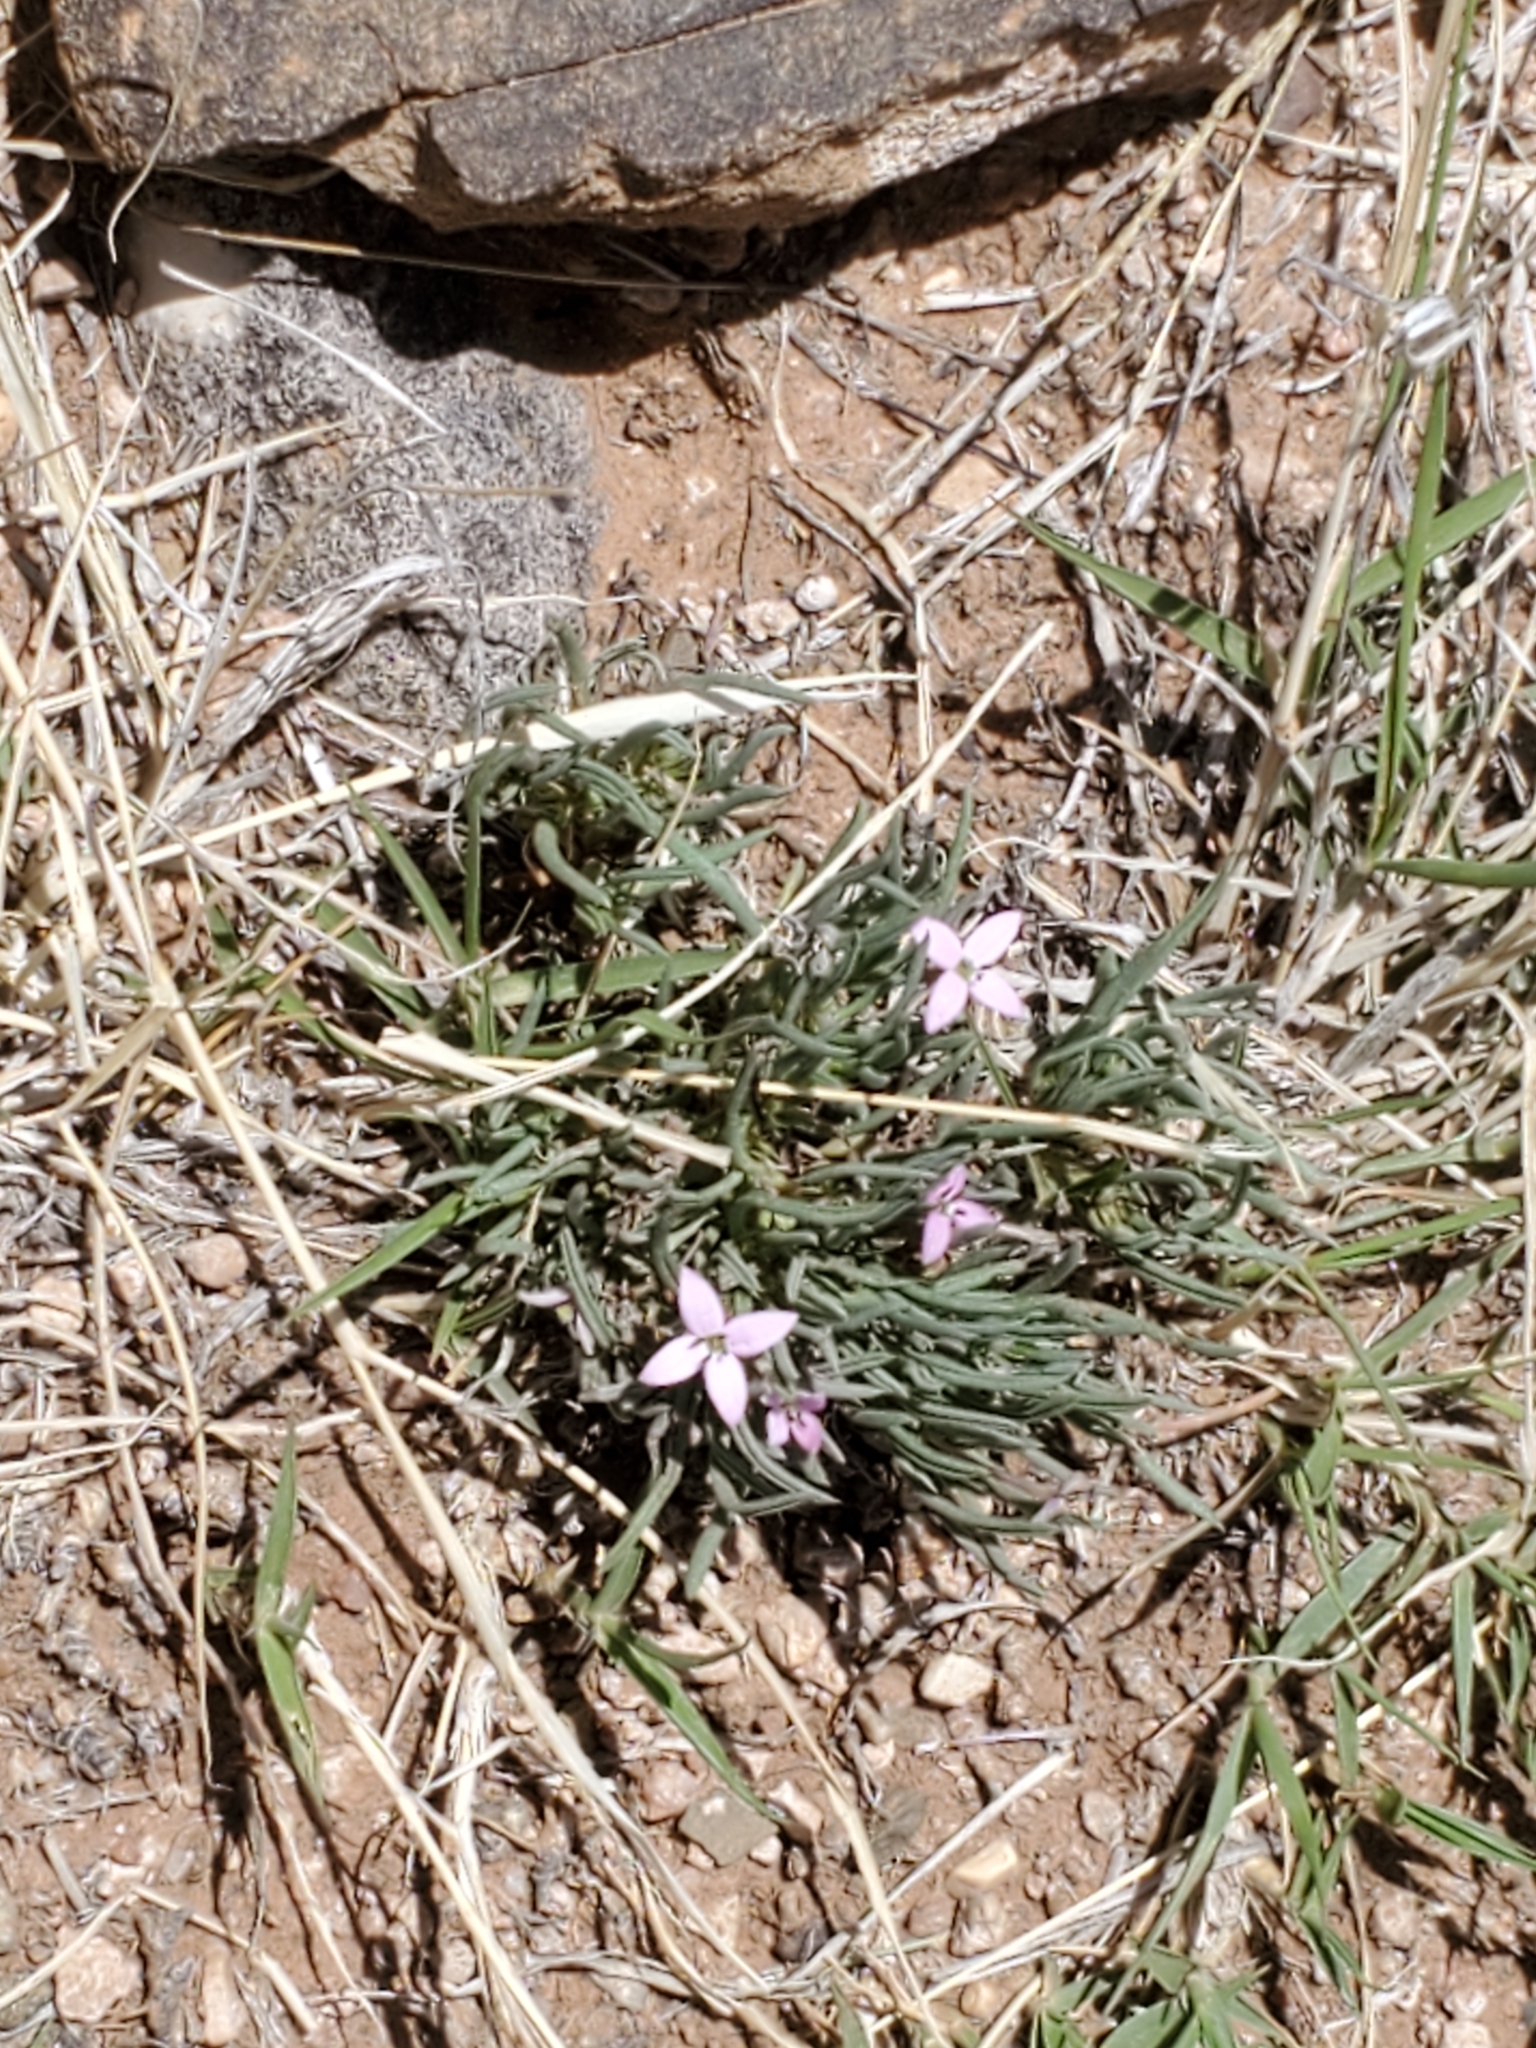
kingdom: Plantae
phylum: Tracheophyta
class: Magnoliopsida
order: Gentianales
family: Rubiaceae
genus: Houstonia
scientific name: Houstonia rubra
